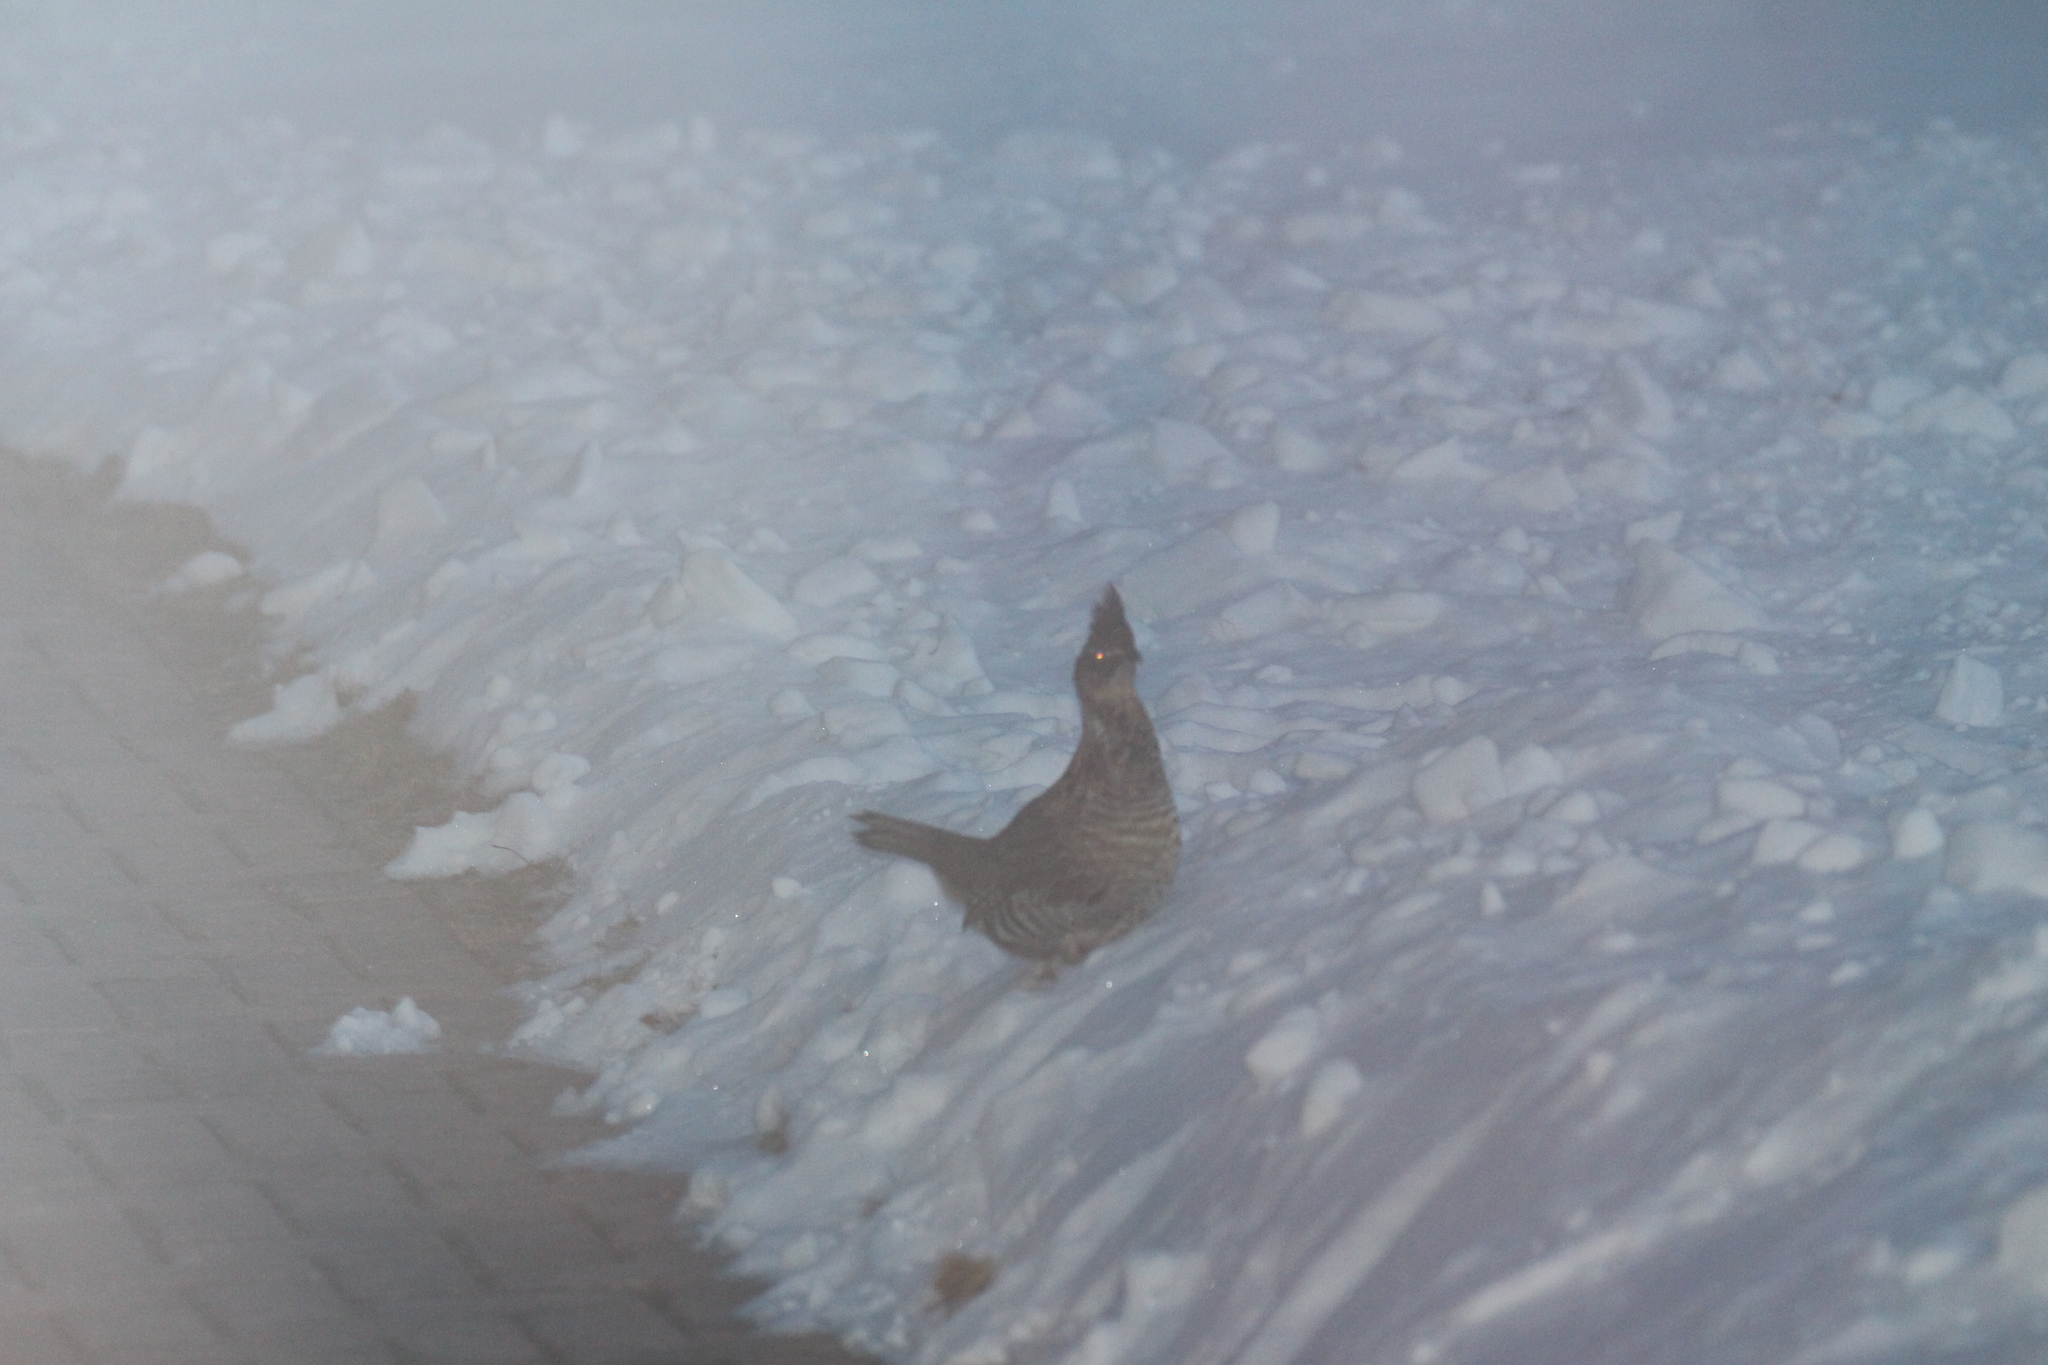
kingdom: Animalia
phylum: Chordata
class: Aves
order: Galliformes
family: Phasianidae
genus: Bonasa
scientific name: Bonasa umbellus
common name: Ruffed grouse
